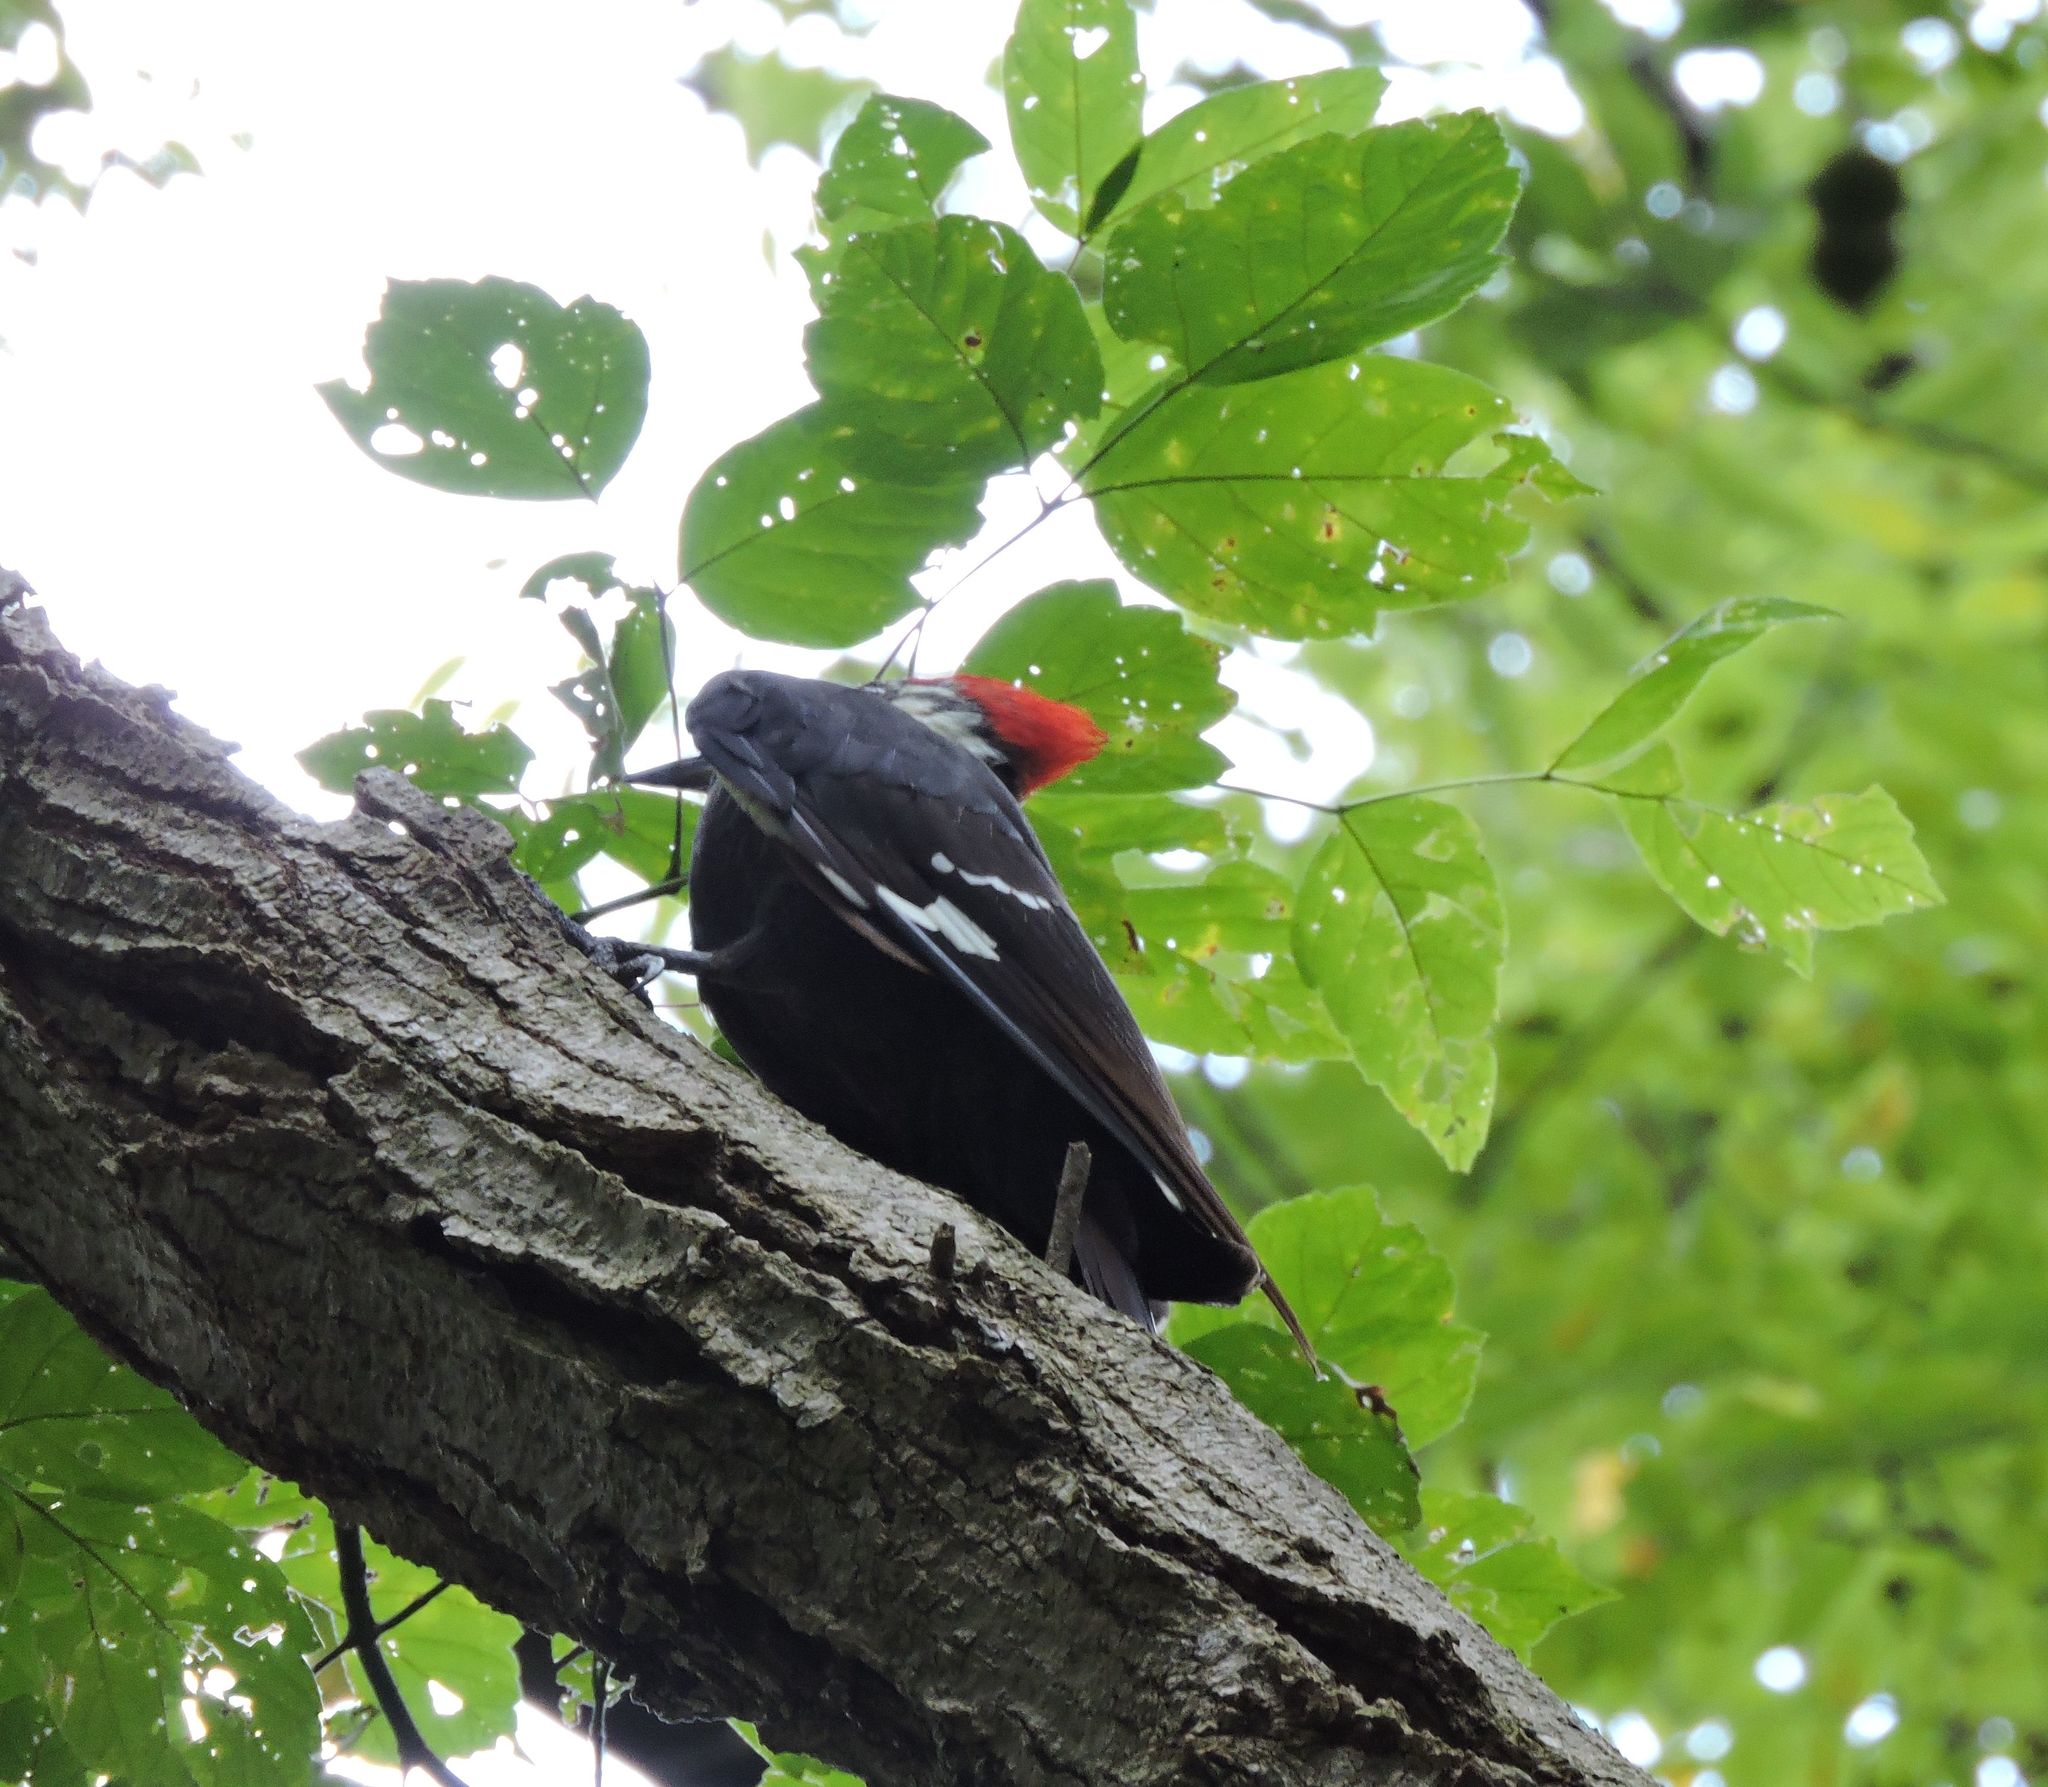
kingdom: Animalia
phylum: Chordata
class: Aves
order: Piciformes
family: Picidae
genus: Dryocopus
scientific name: Dryocopus pileatus
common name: Pileated woodpecker
